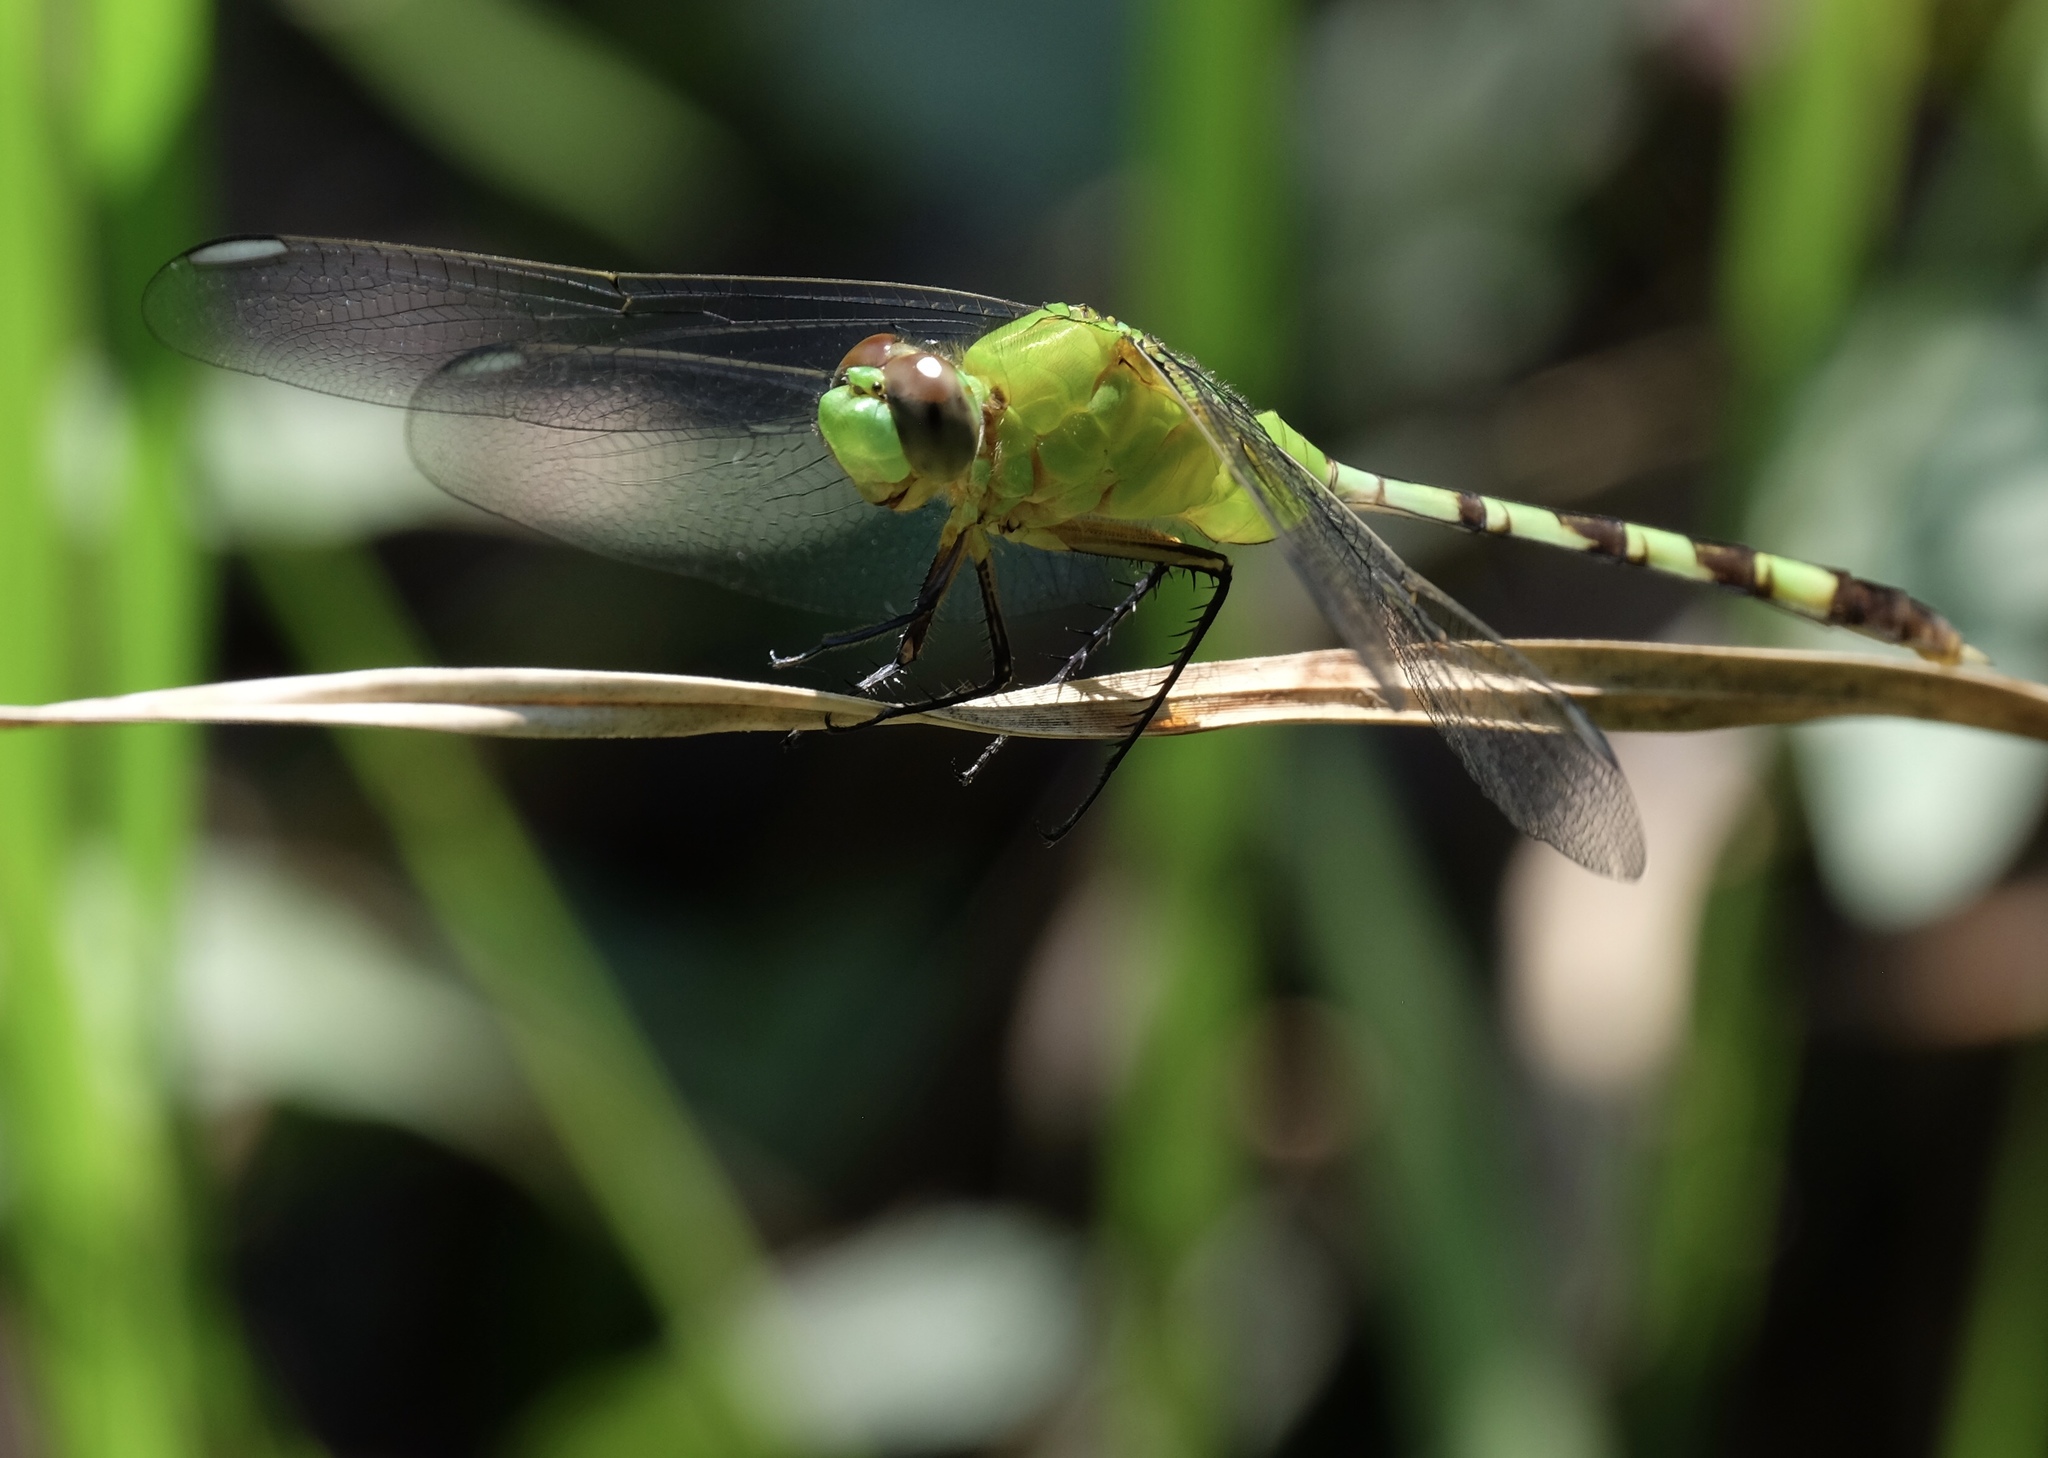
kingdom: Animalia
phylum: Arthropoda
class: Insecta
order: Odonata
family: Libellulidae
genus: Erythemis
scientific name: Erythemis vesiculosa
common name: Great pondhawk
